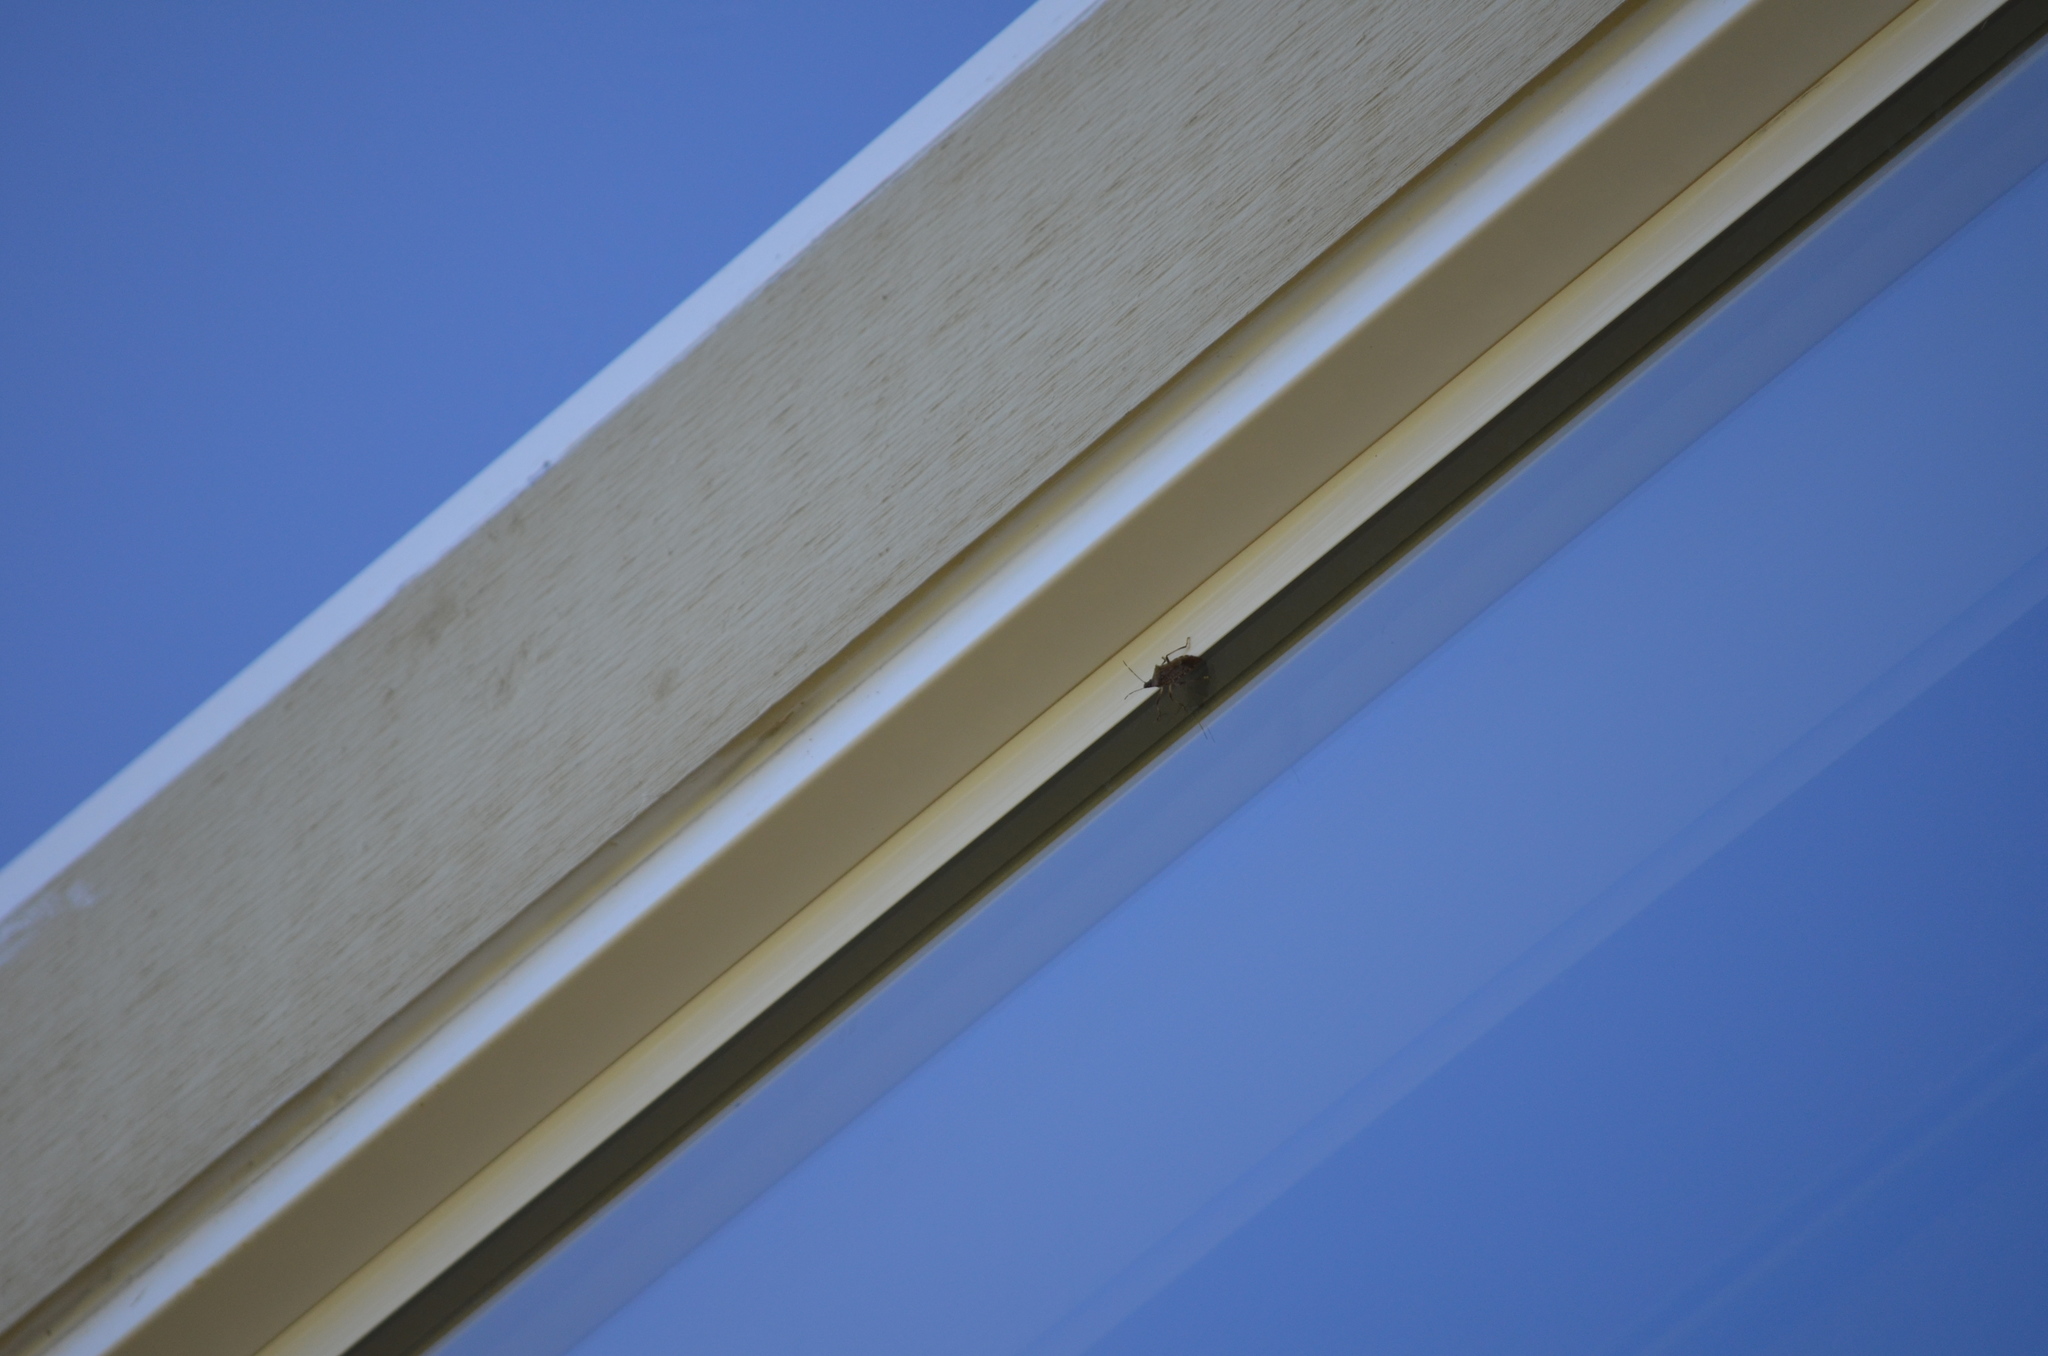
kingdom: Animalia
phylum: Arthropoda
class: Insecta
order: Hemiptera
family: Pentatomidae
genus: Halyomorpha
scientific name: Halyomorpha halys
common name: Brown marmorated stink bug
